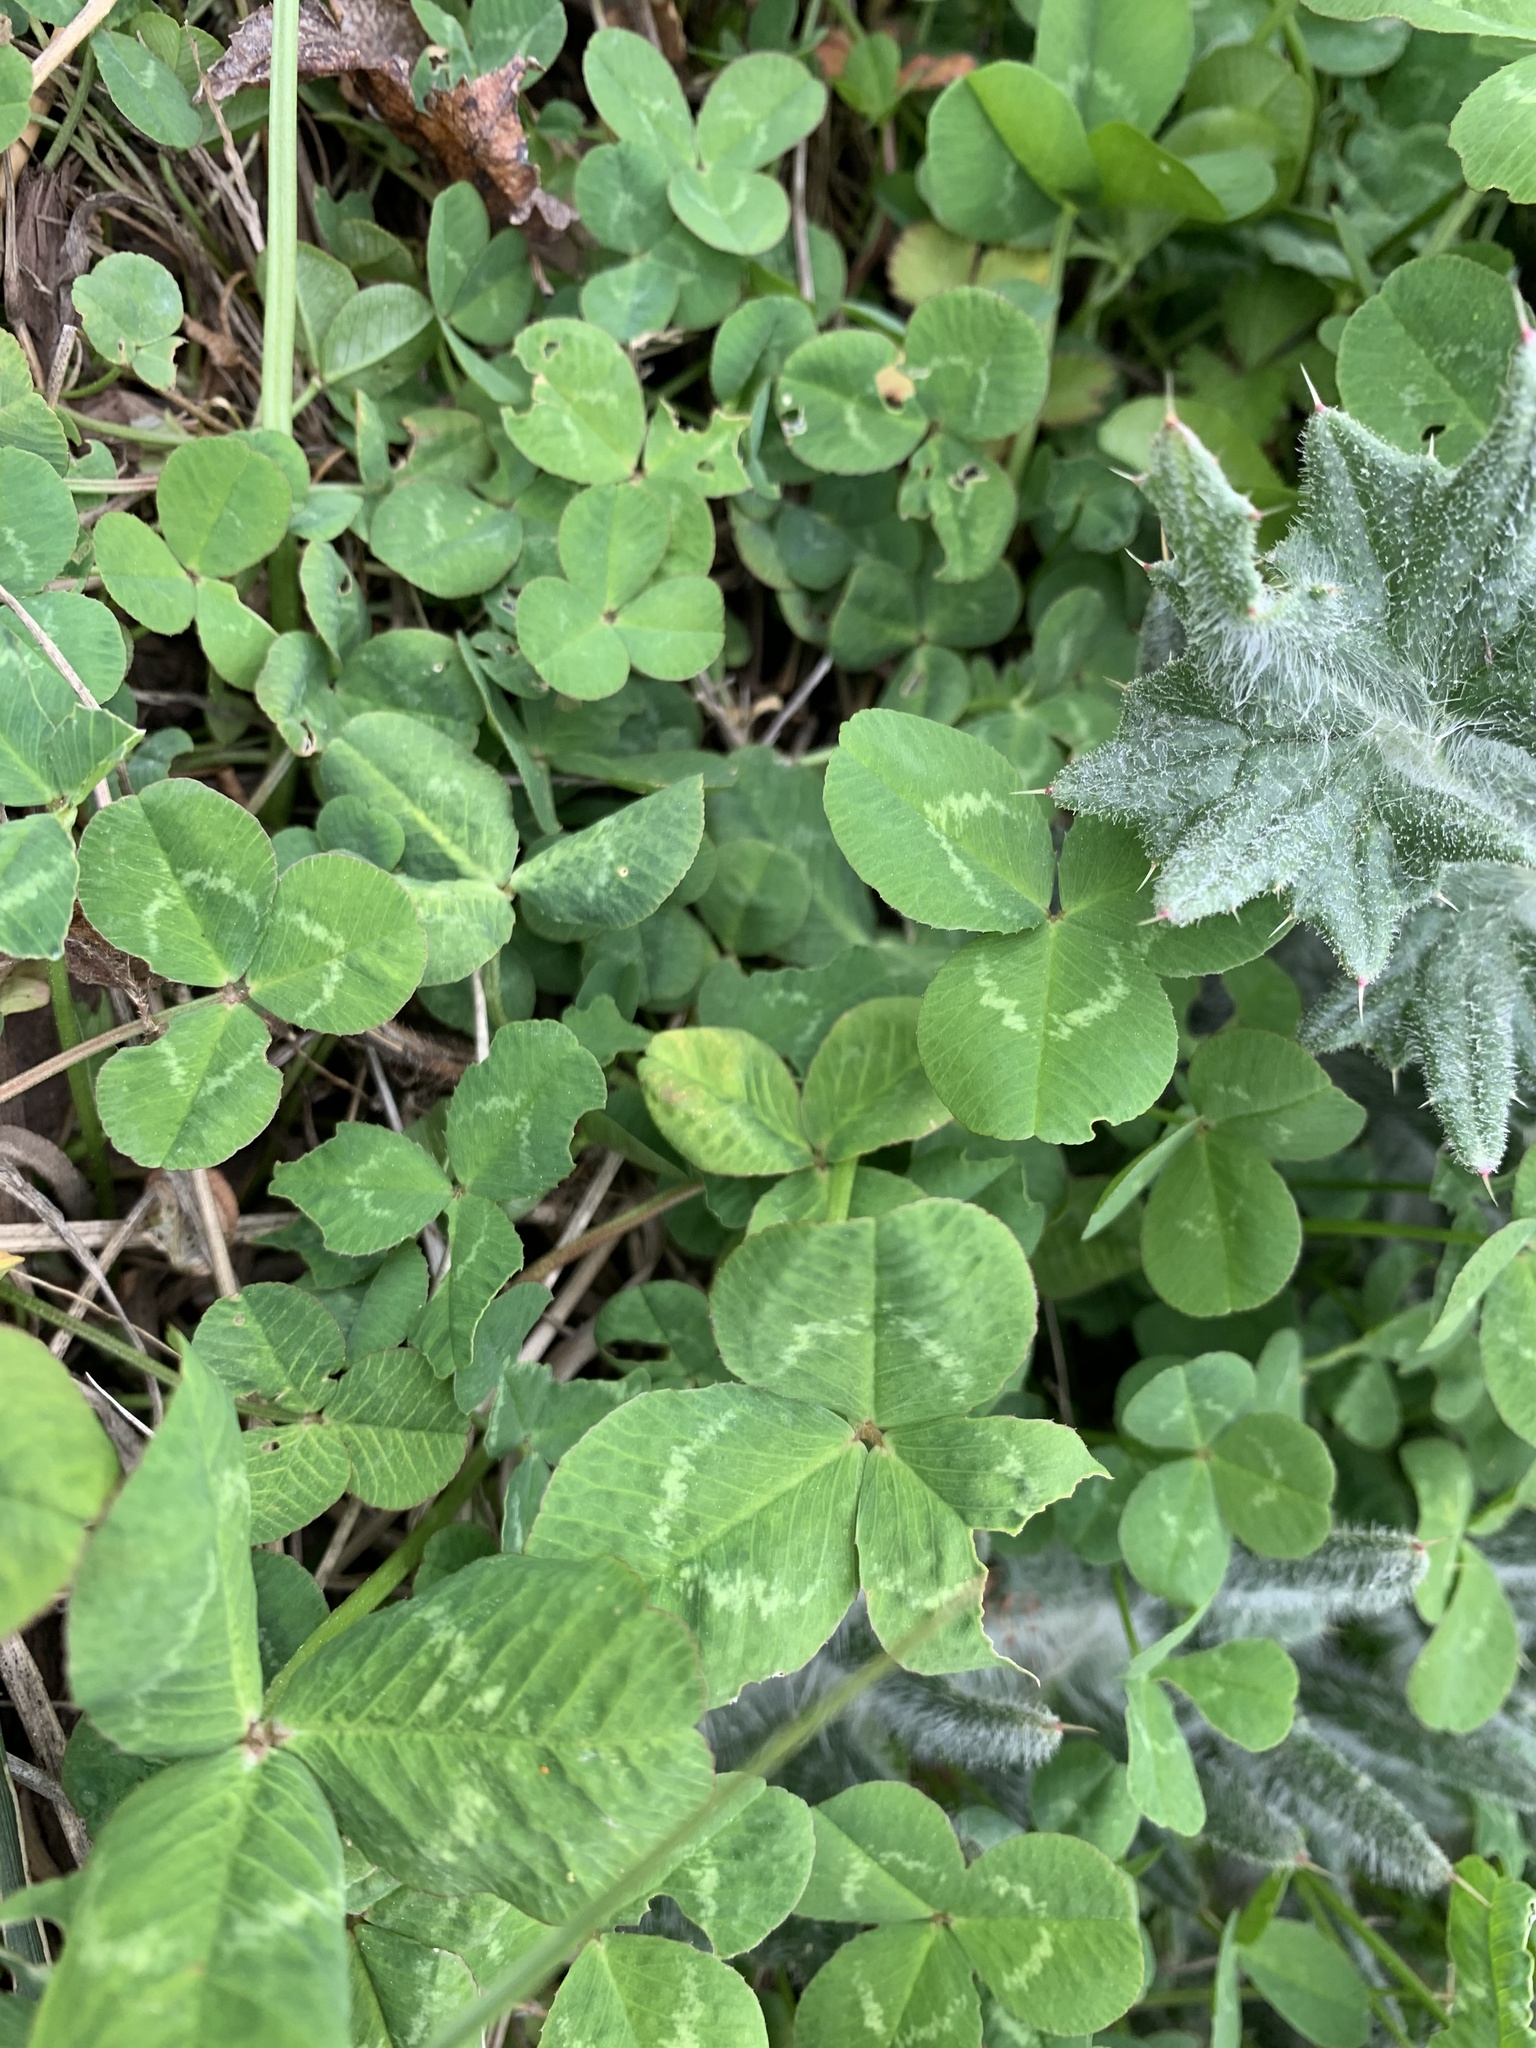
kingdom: Plantae
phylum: Tracheophyta
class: Magnoliopsida
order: Fabales
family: Fabaceae
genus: Trifolium
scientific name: Trifolium repens
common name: White clover
